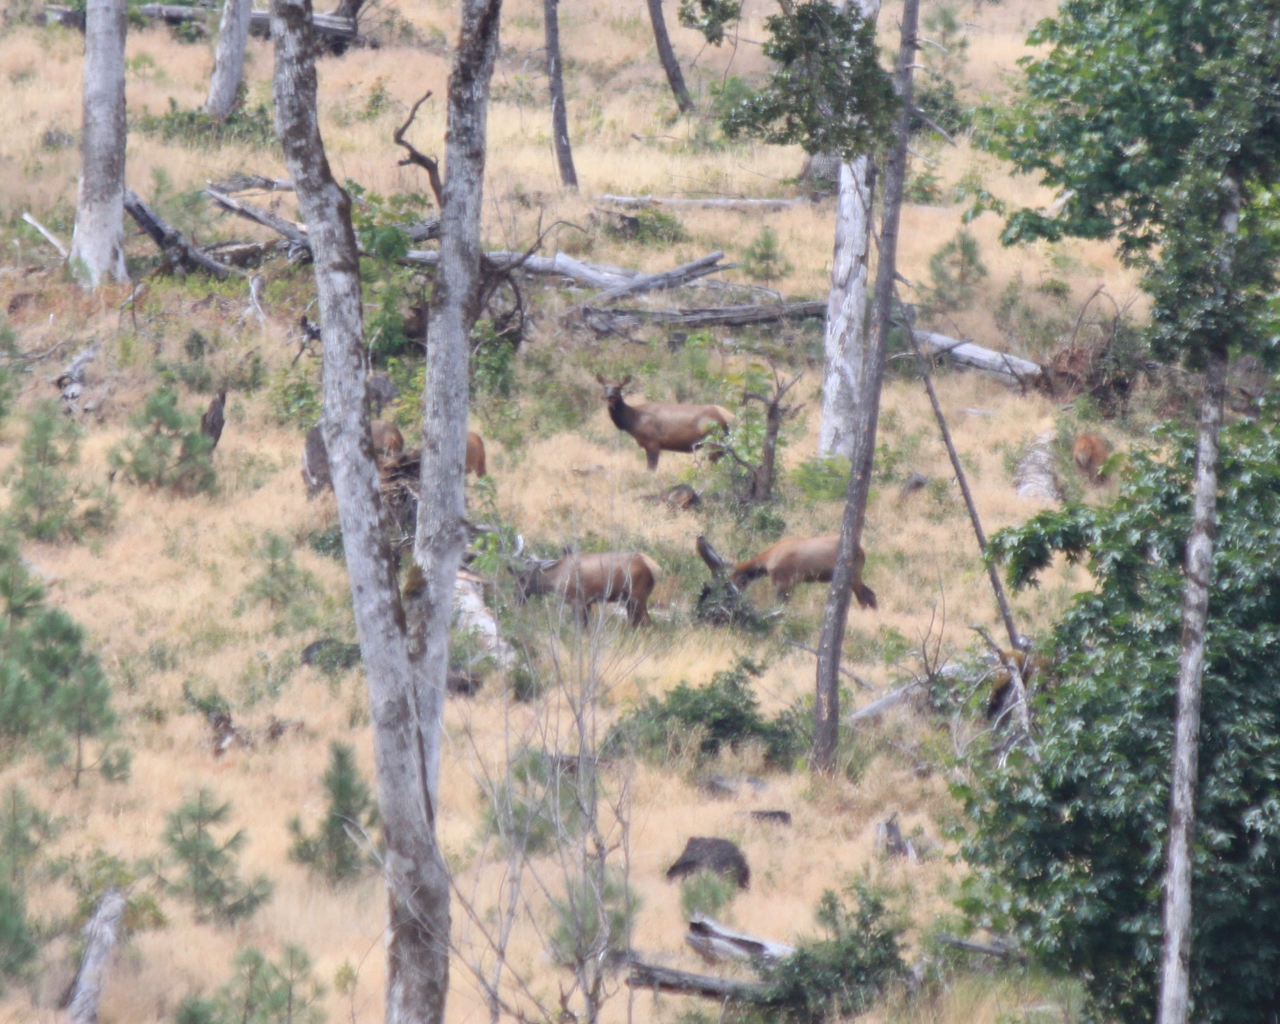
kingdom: Animalia
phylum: Chordata
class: Mammalia
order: Artiodactyla
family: Cervidae
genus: Cervus
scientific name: Cervus elaphus
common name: Red deer
